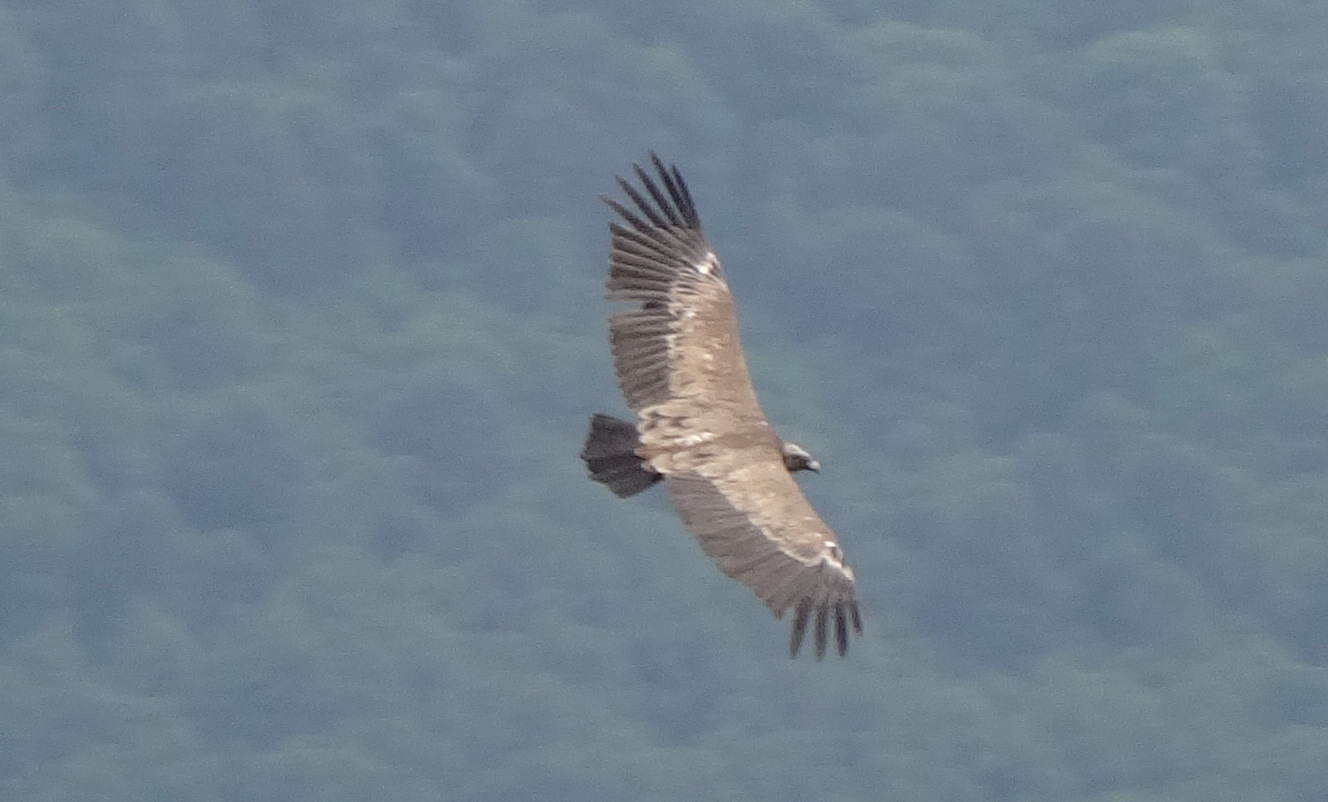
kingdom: Animalia
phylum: Chordata
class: Aves
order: Accipitriformes
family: Accipitridae
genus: Gyps
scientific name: Gyps fulvus
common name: Griffon vulture
